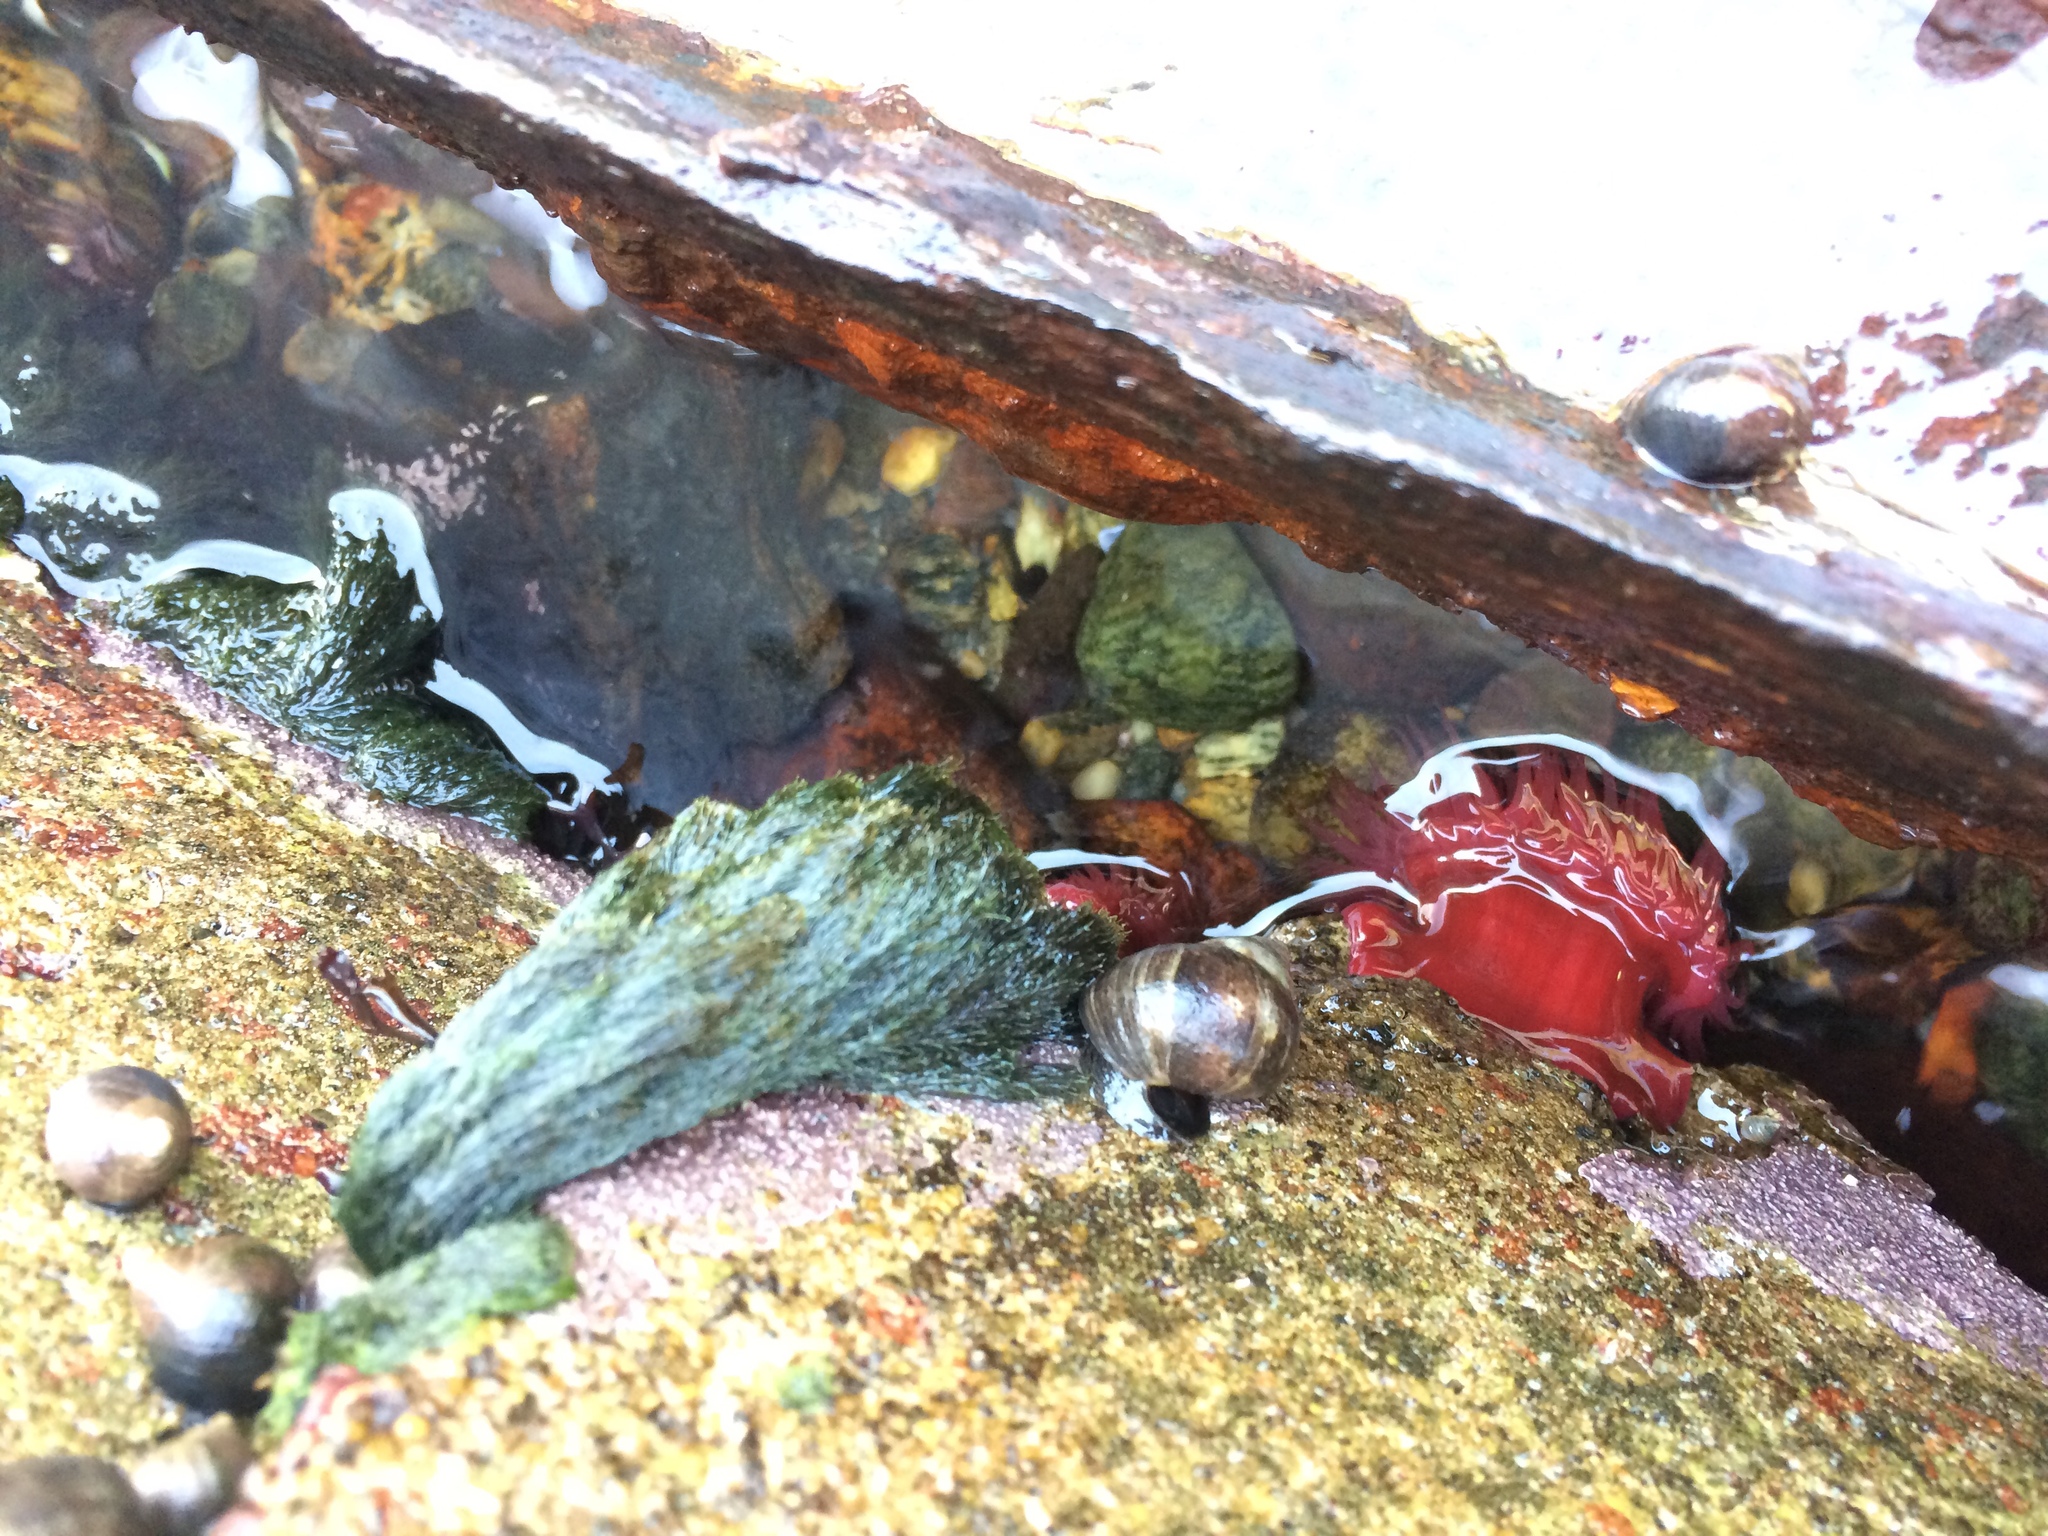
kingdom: Animalia
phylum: Cnidaria
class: Anthozoa
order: Actiniaria
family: Actiniidae
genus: Actinia
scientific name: Actinia equina
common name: Beadlet anemone
